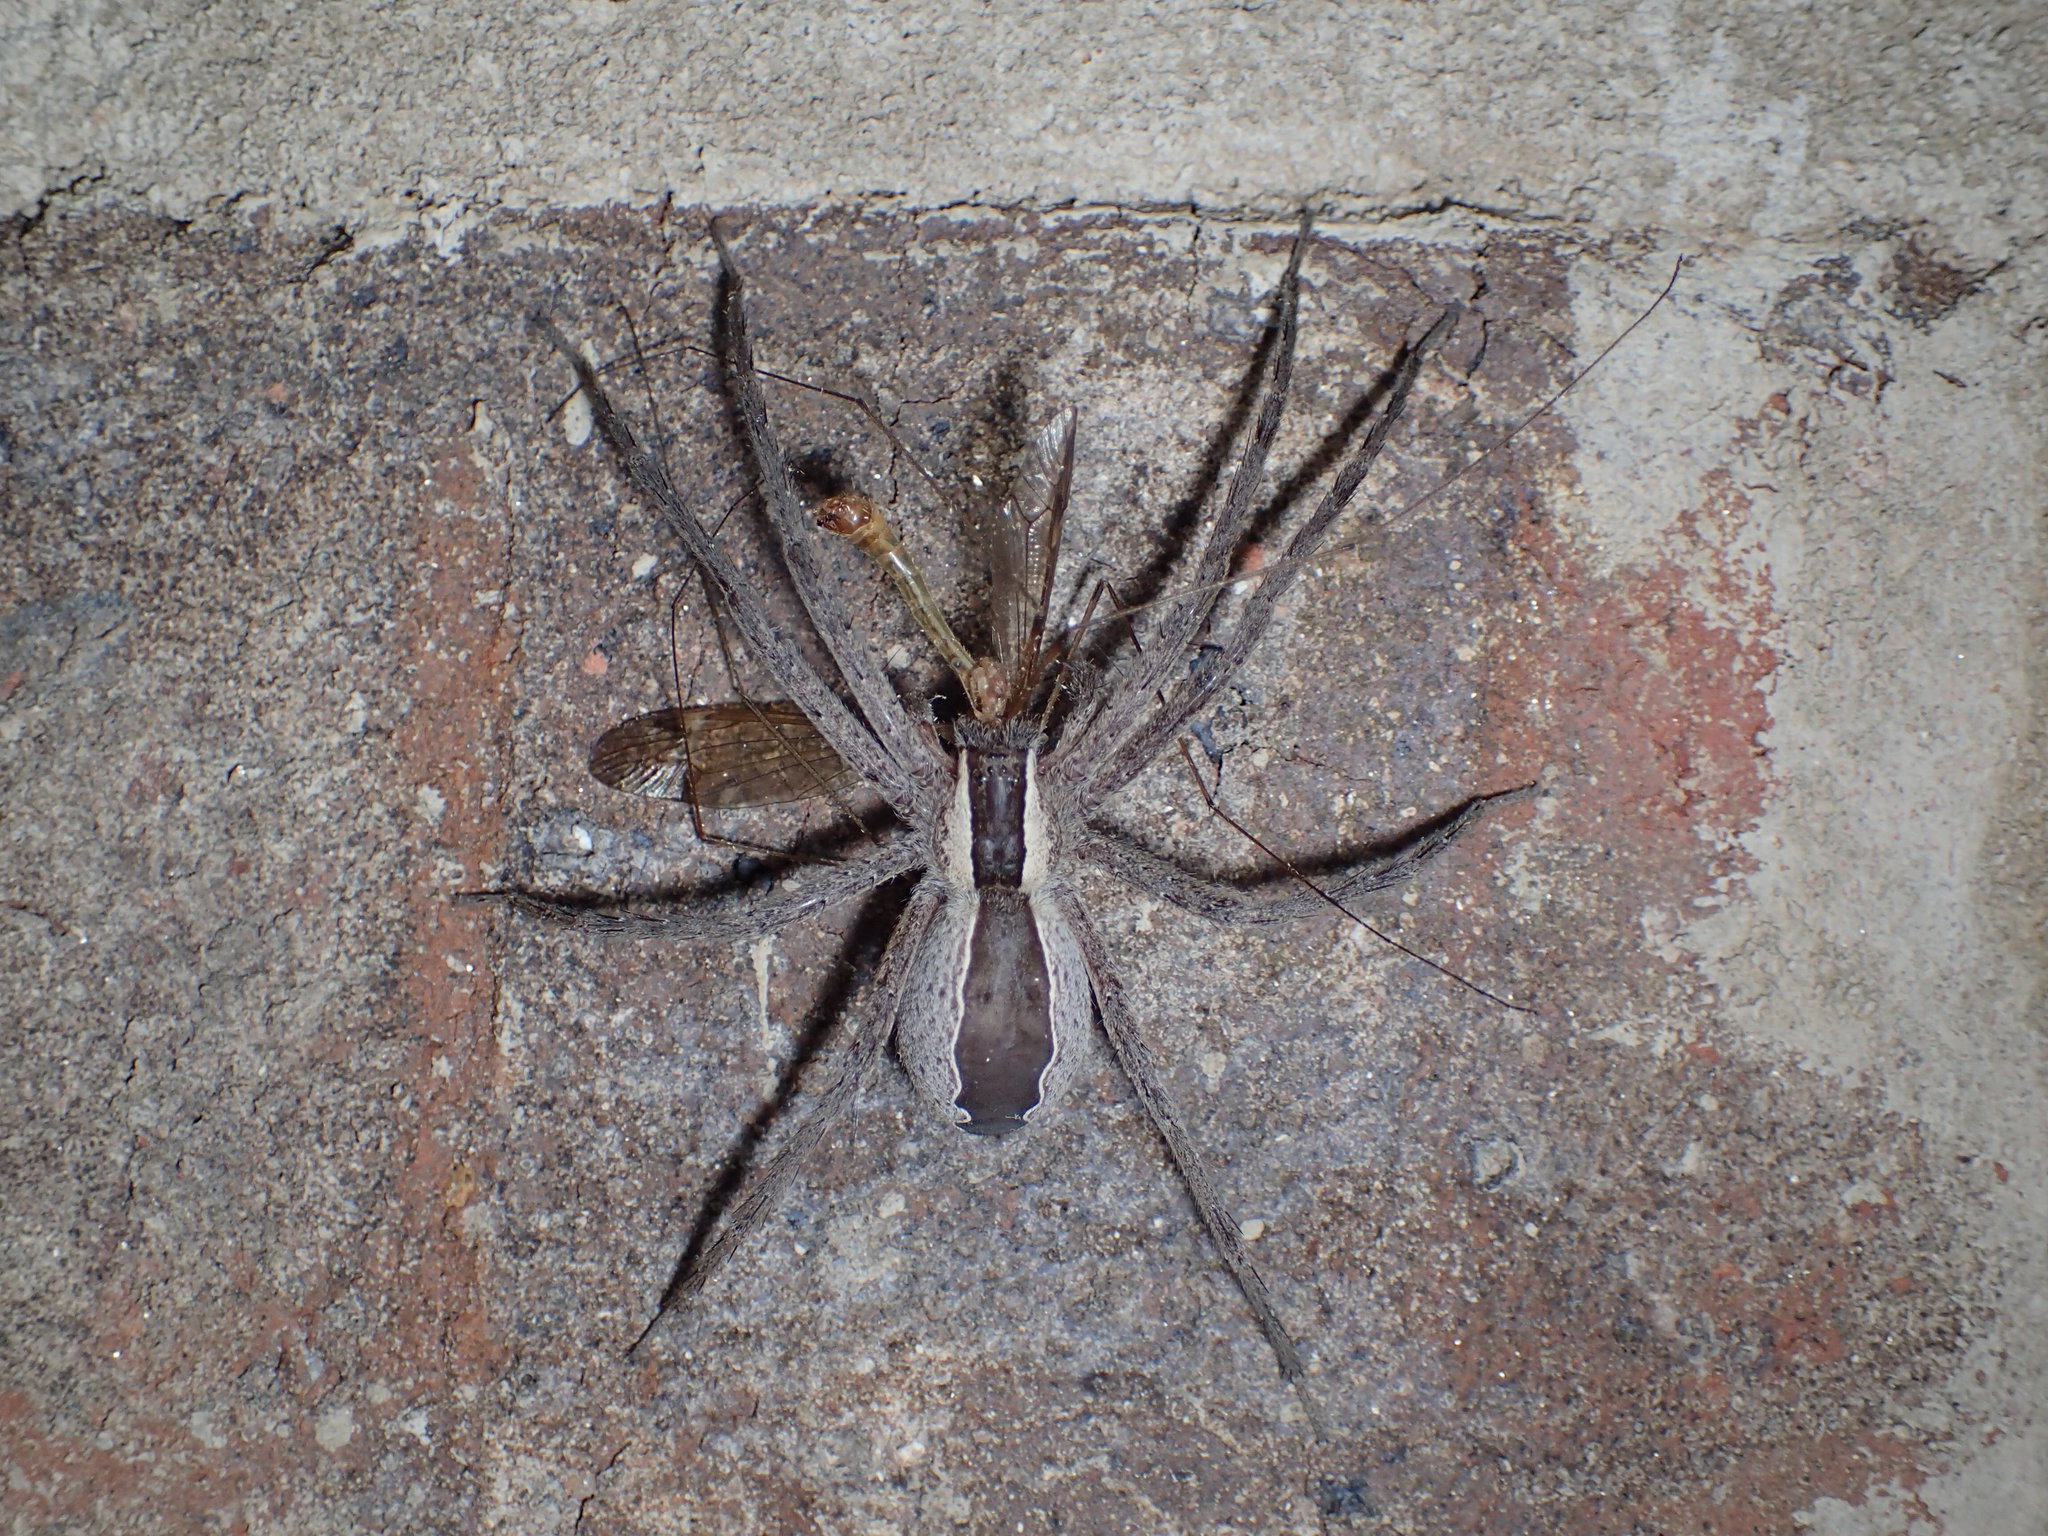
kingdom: Animalia
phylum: Arthropoda
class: Arachnida
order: Araneae
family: Pisauridae
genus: Pisaurina
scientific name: Pisaurina mira
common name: American nursery web spider
